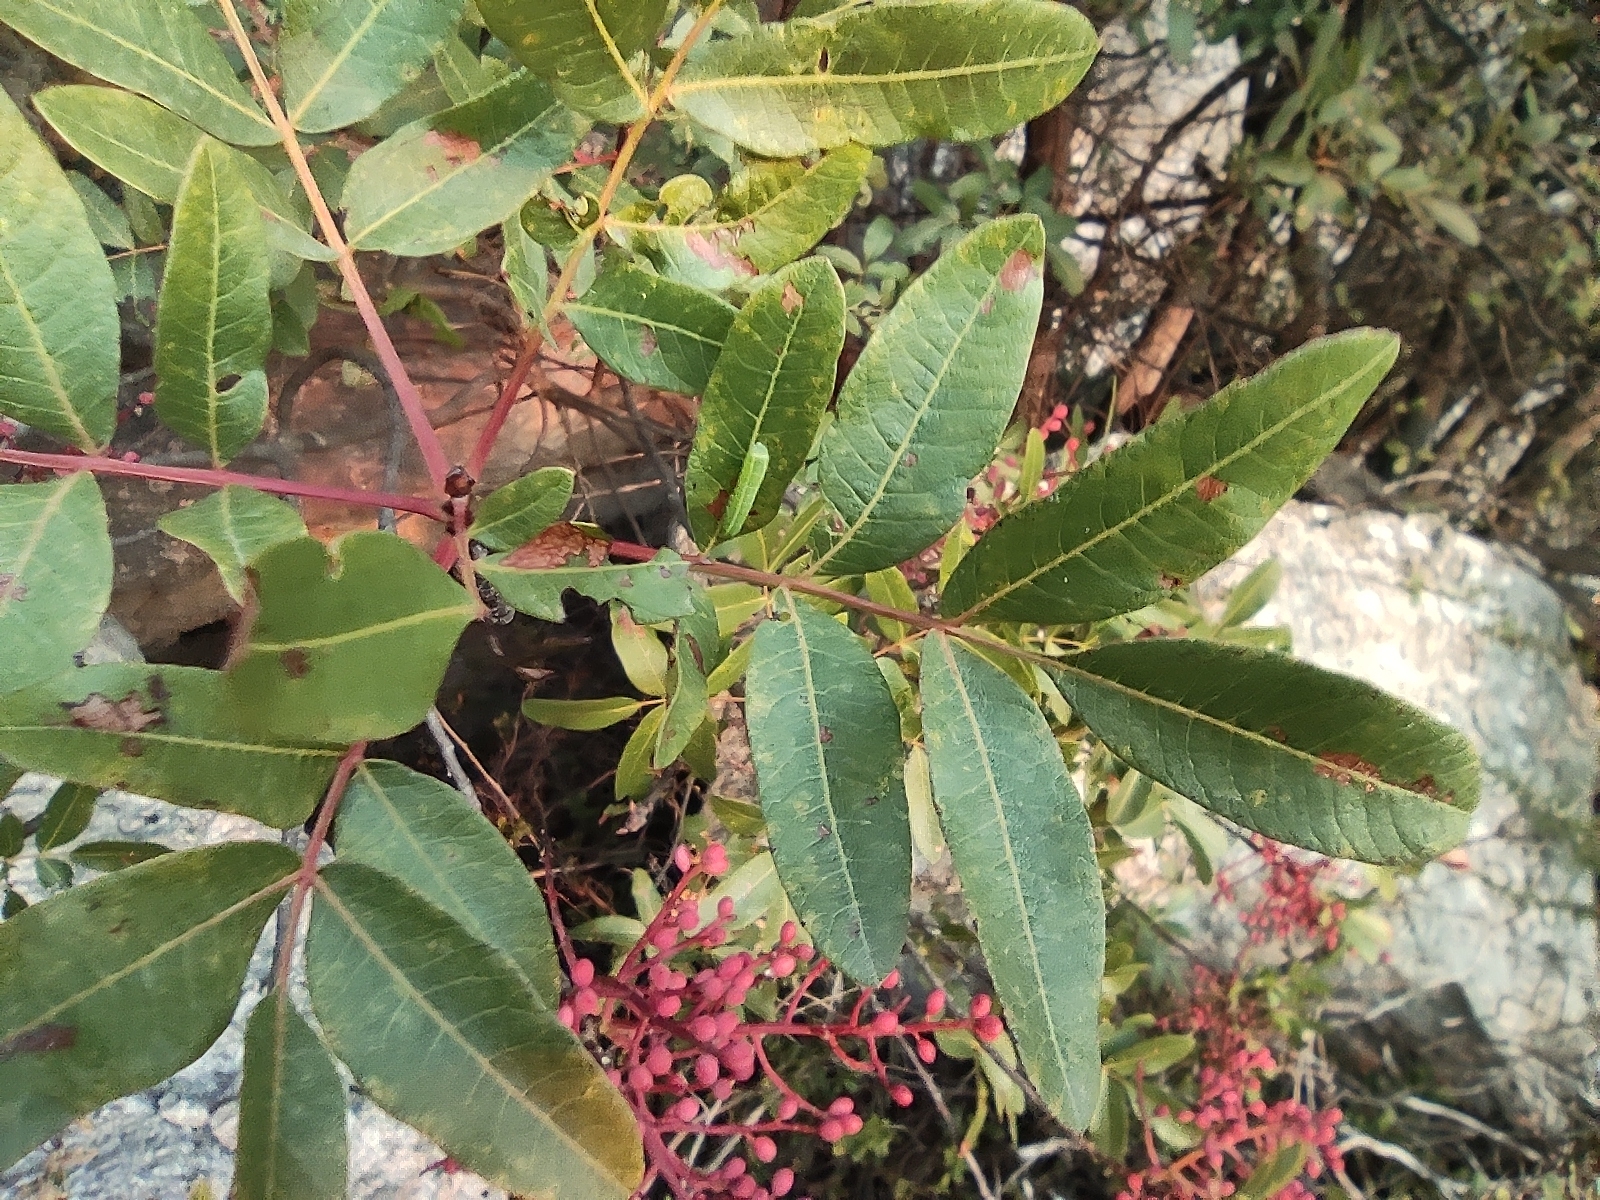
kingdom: Plantae
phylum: Tracheophyta
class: Magnoliopsida
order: Sapindales
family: Anacardiaceae
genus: Pistacia
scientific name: Pistacia terebinthus
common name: Terebinth
